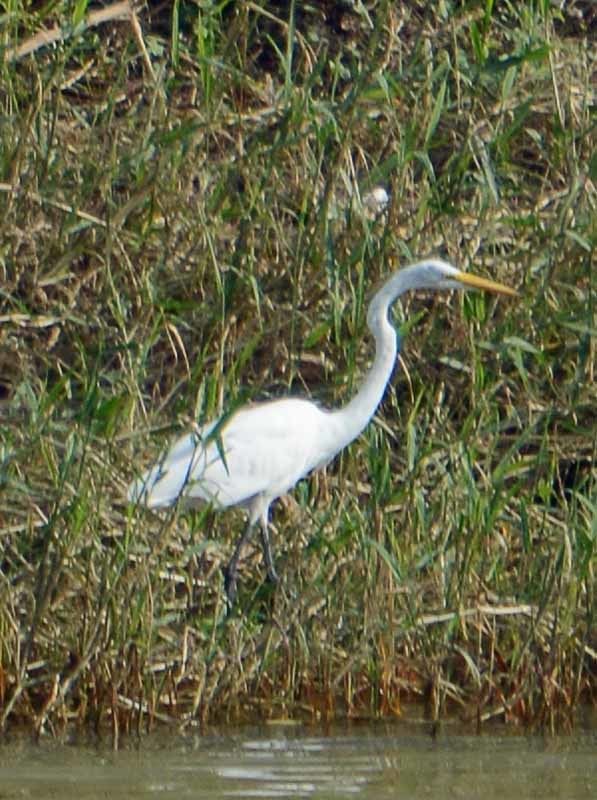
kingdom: Animalia
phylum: Chordata
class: Aves
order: Pelecaniformes
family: Ardeidae
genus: Ardea
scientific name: Ardea alba
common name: Great egret
